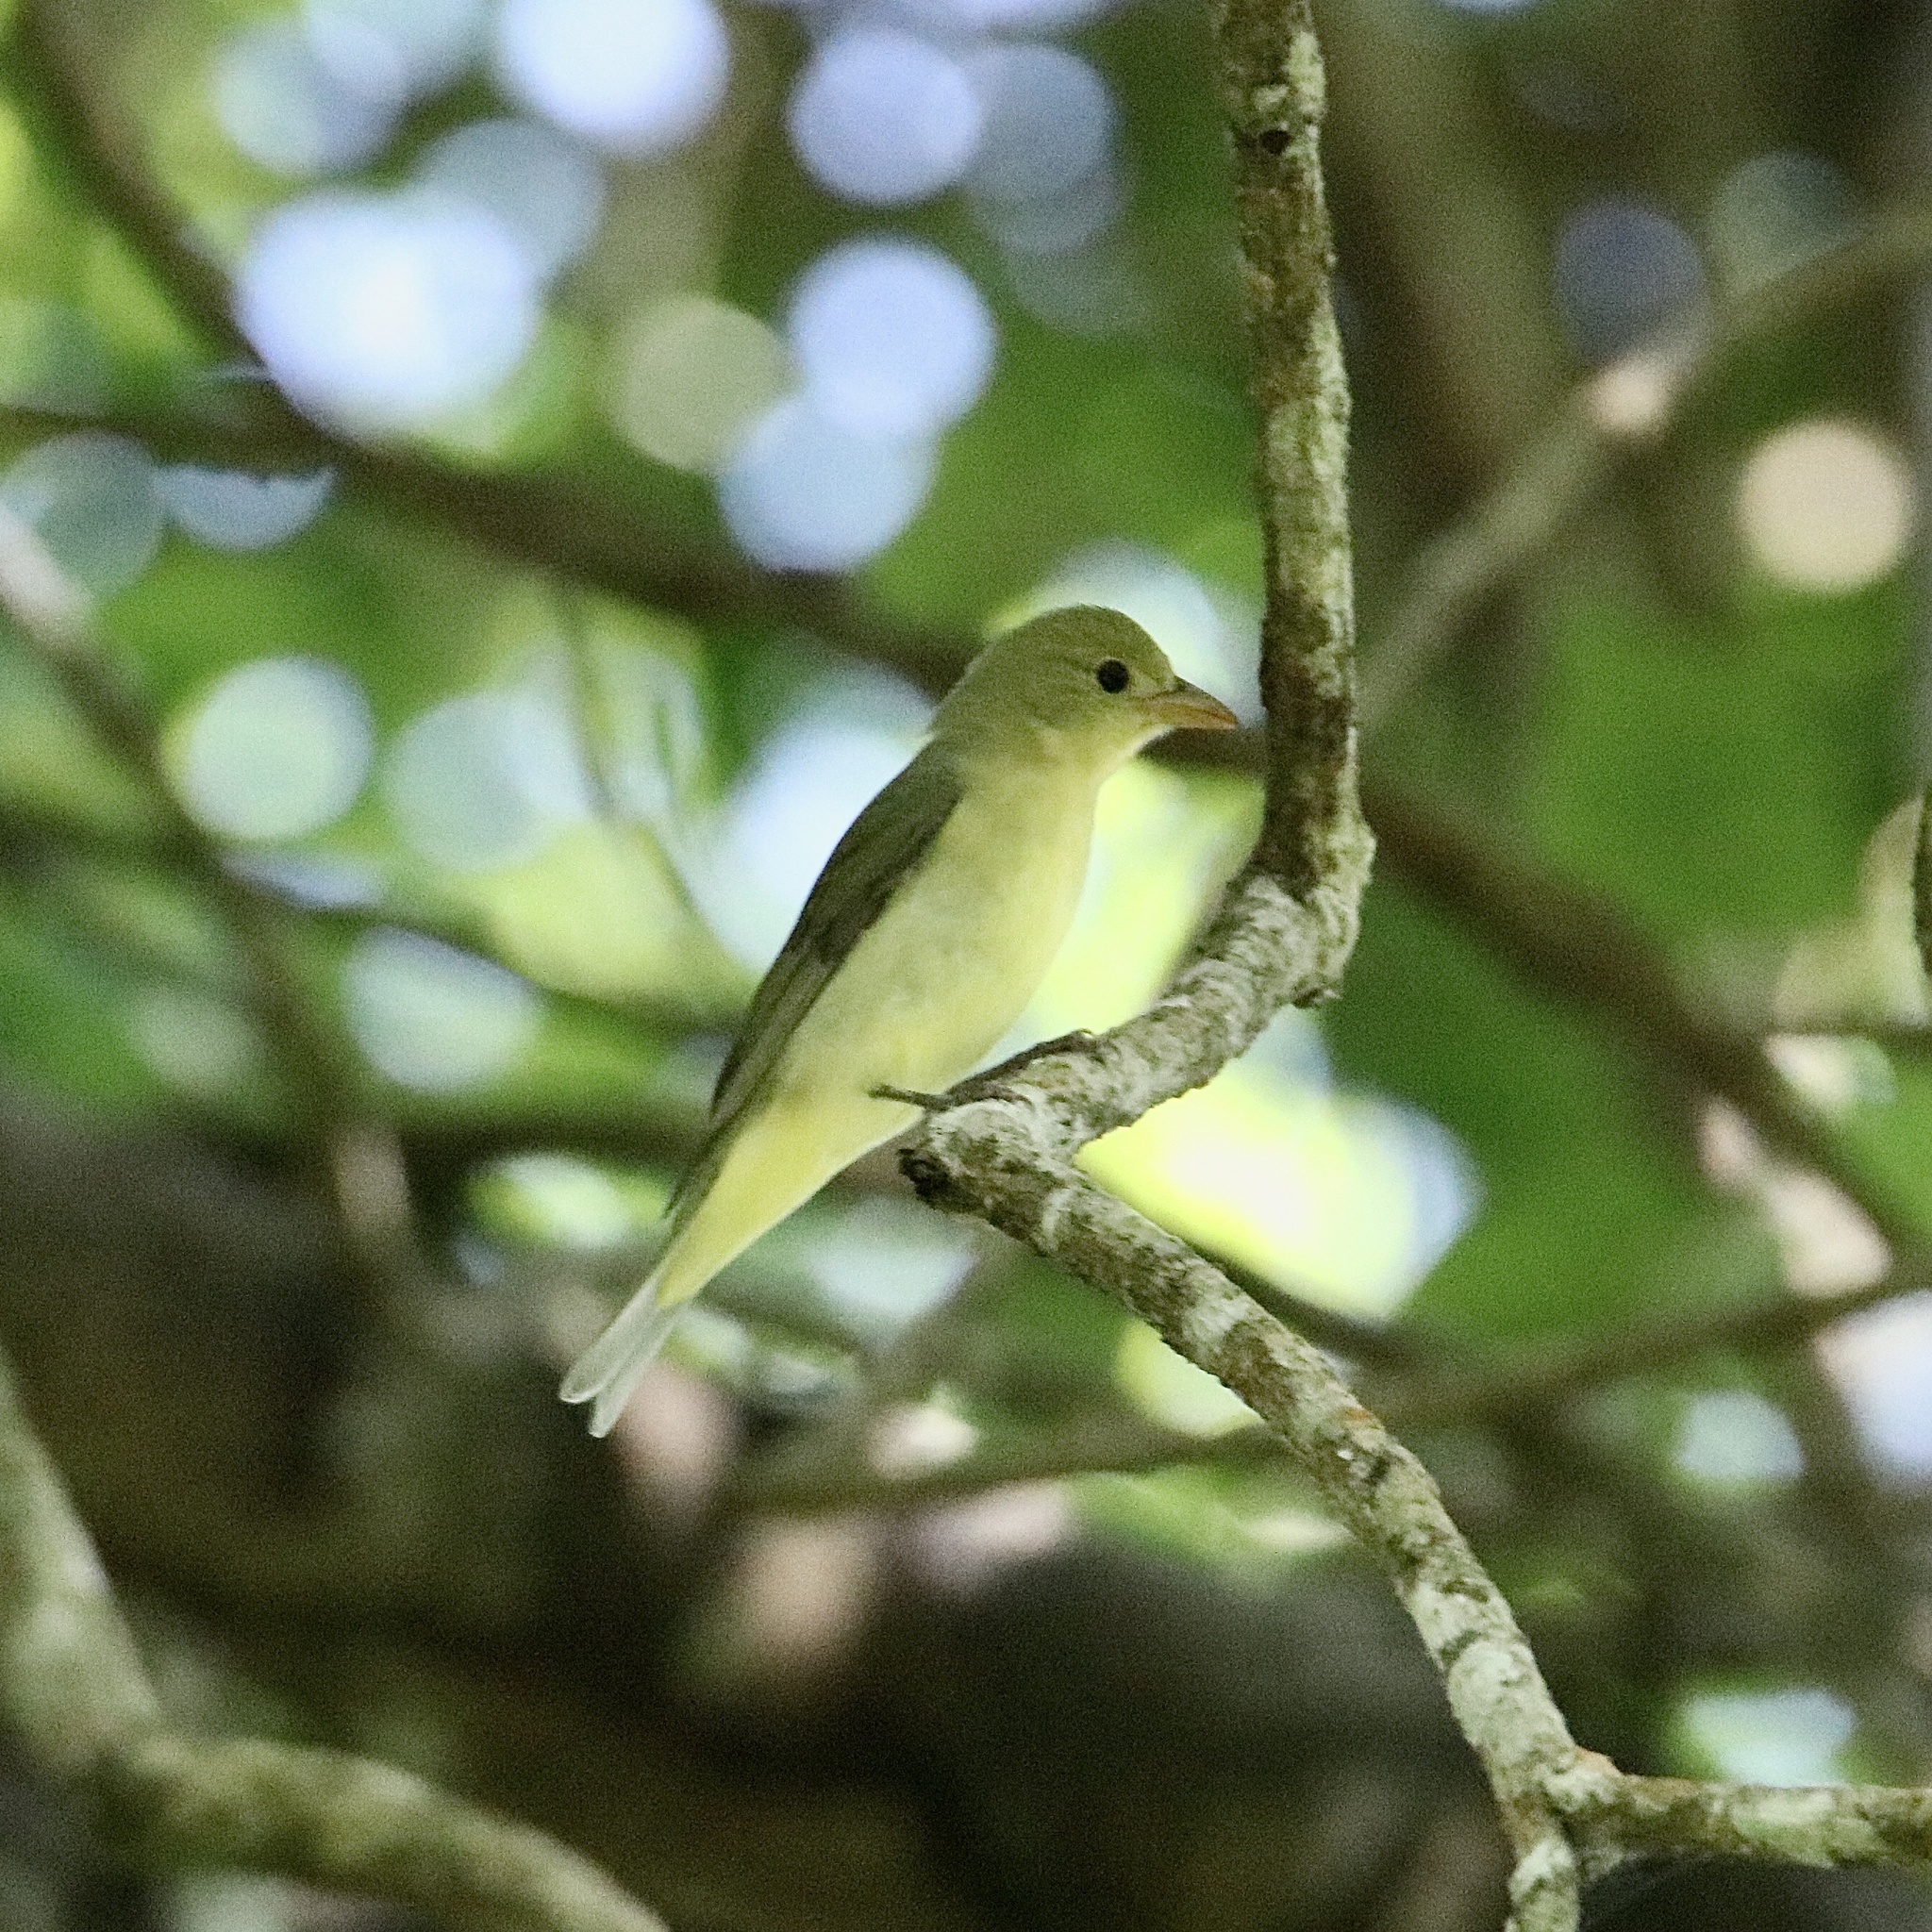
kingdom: Animalia
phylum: Chordata
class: Aves
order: Passeriformes
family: Cardinalidae
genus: Piranga
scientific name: Piranga olivacea
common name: Scarlet tanager
